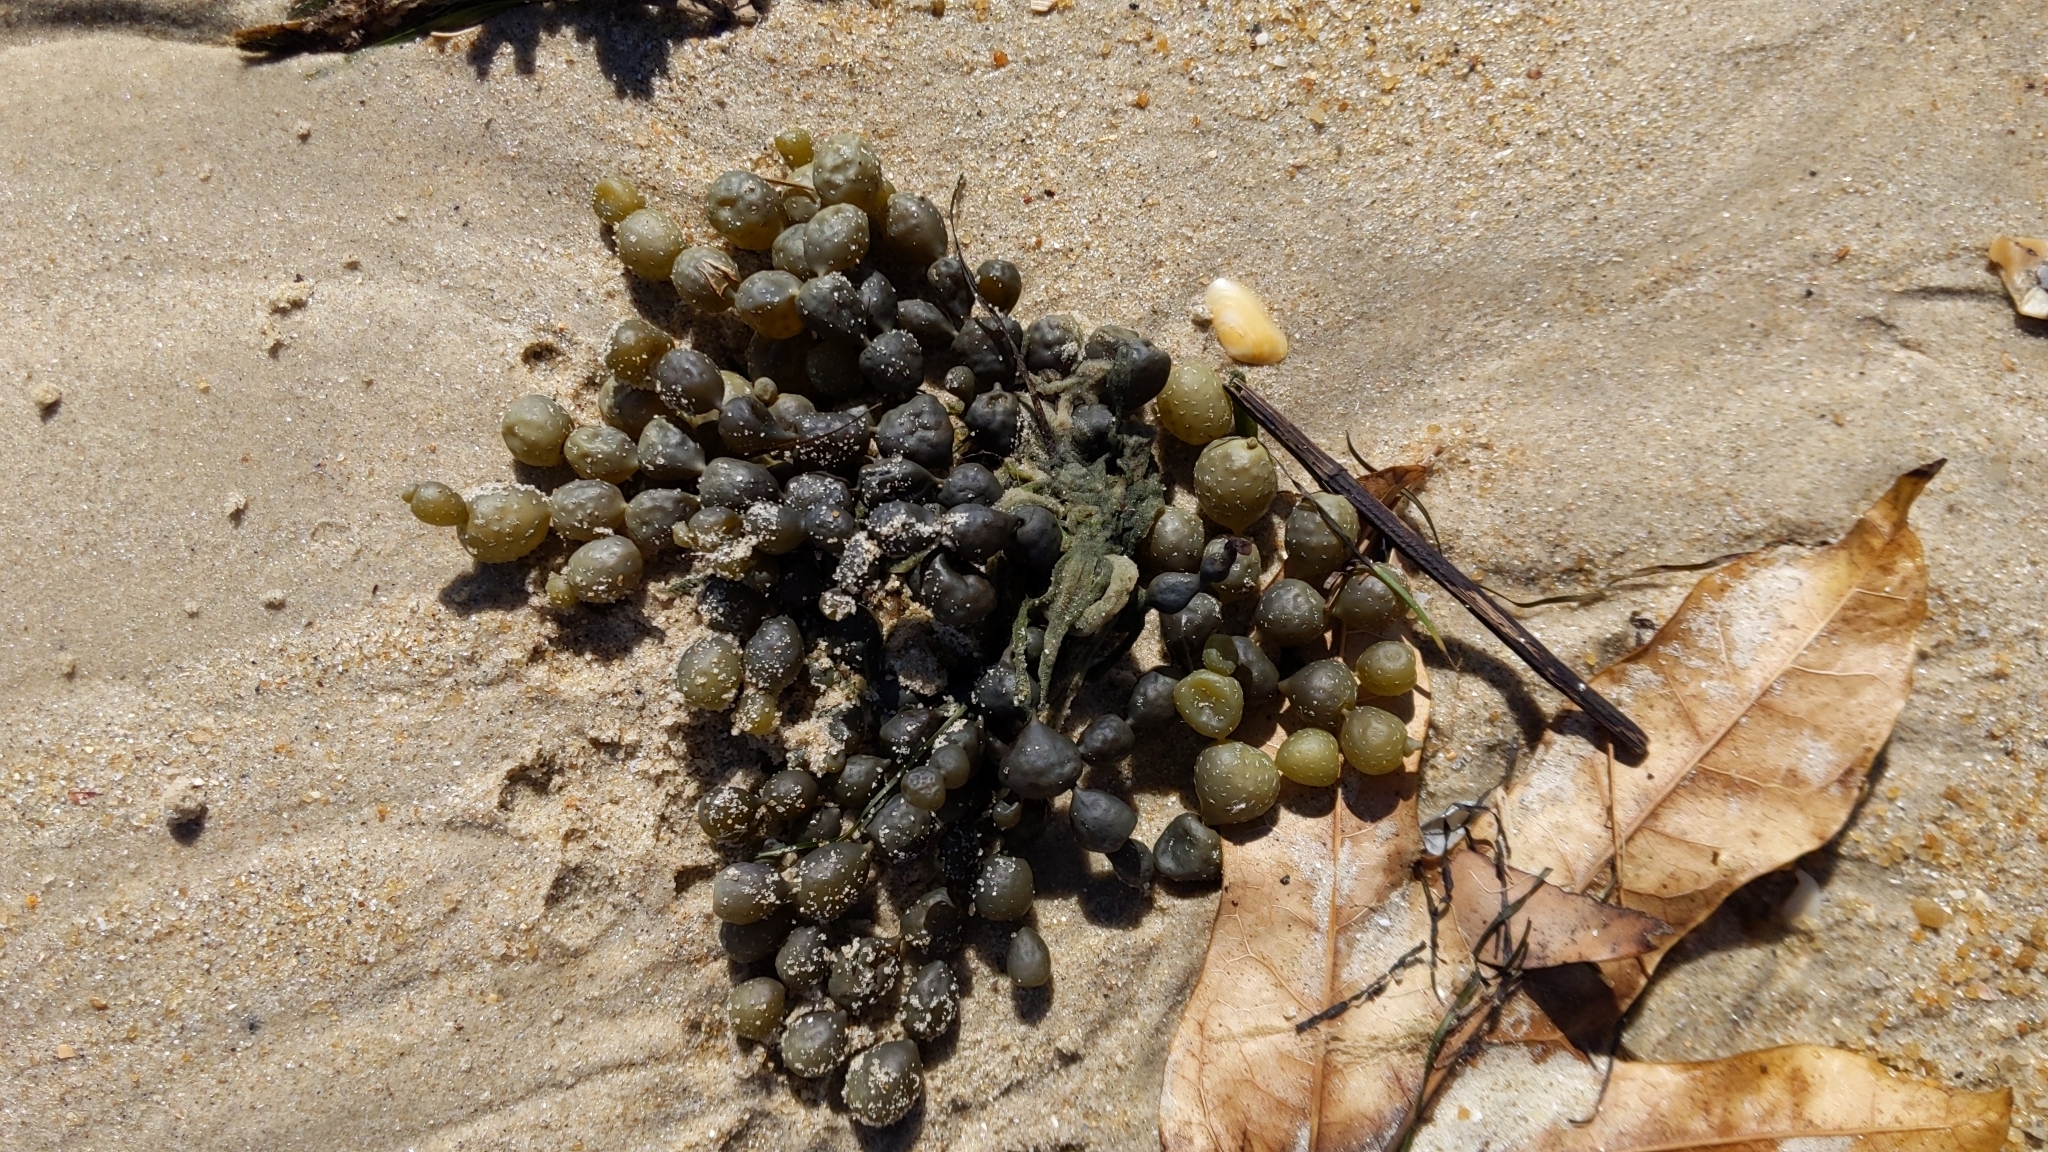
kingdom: Chromista
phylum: Ochrophyta
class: Phaeophyceae
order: Fucales
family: Hormosiraceae
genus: Hormosira
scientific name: Hormosira banksii
